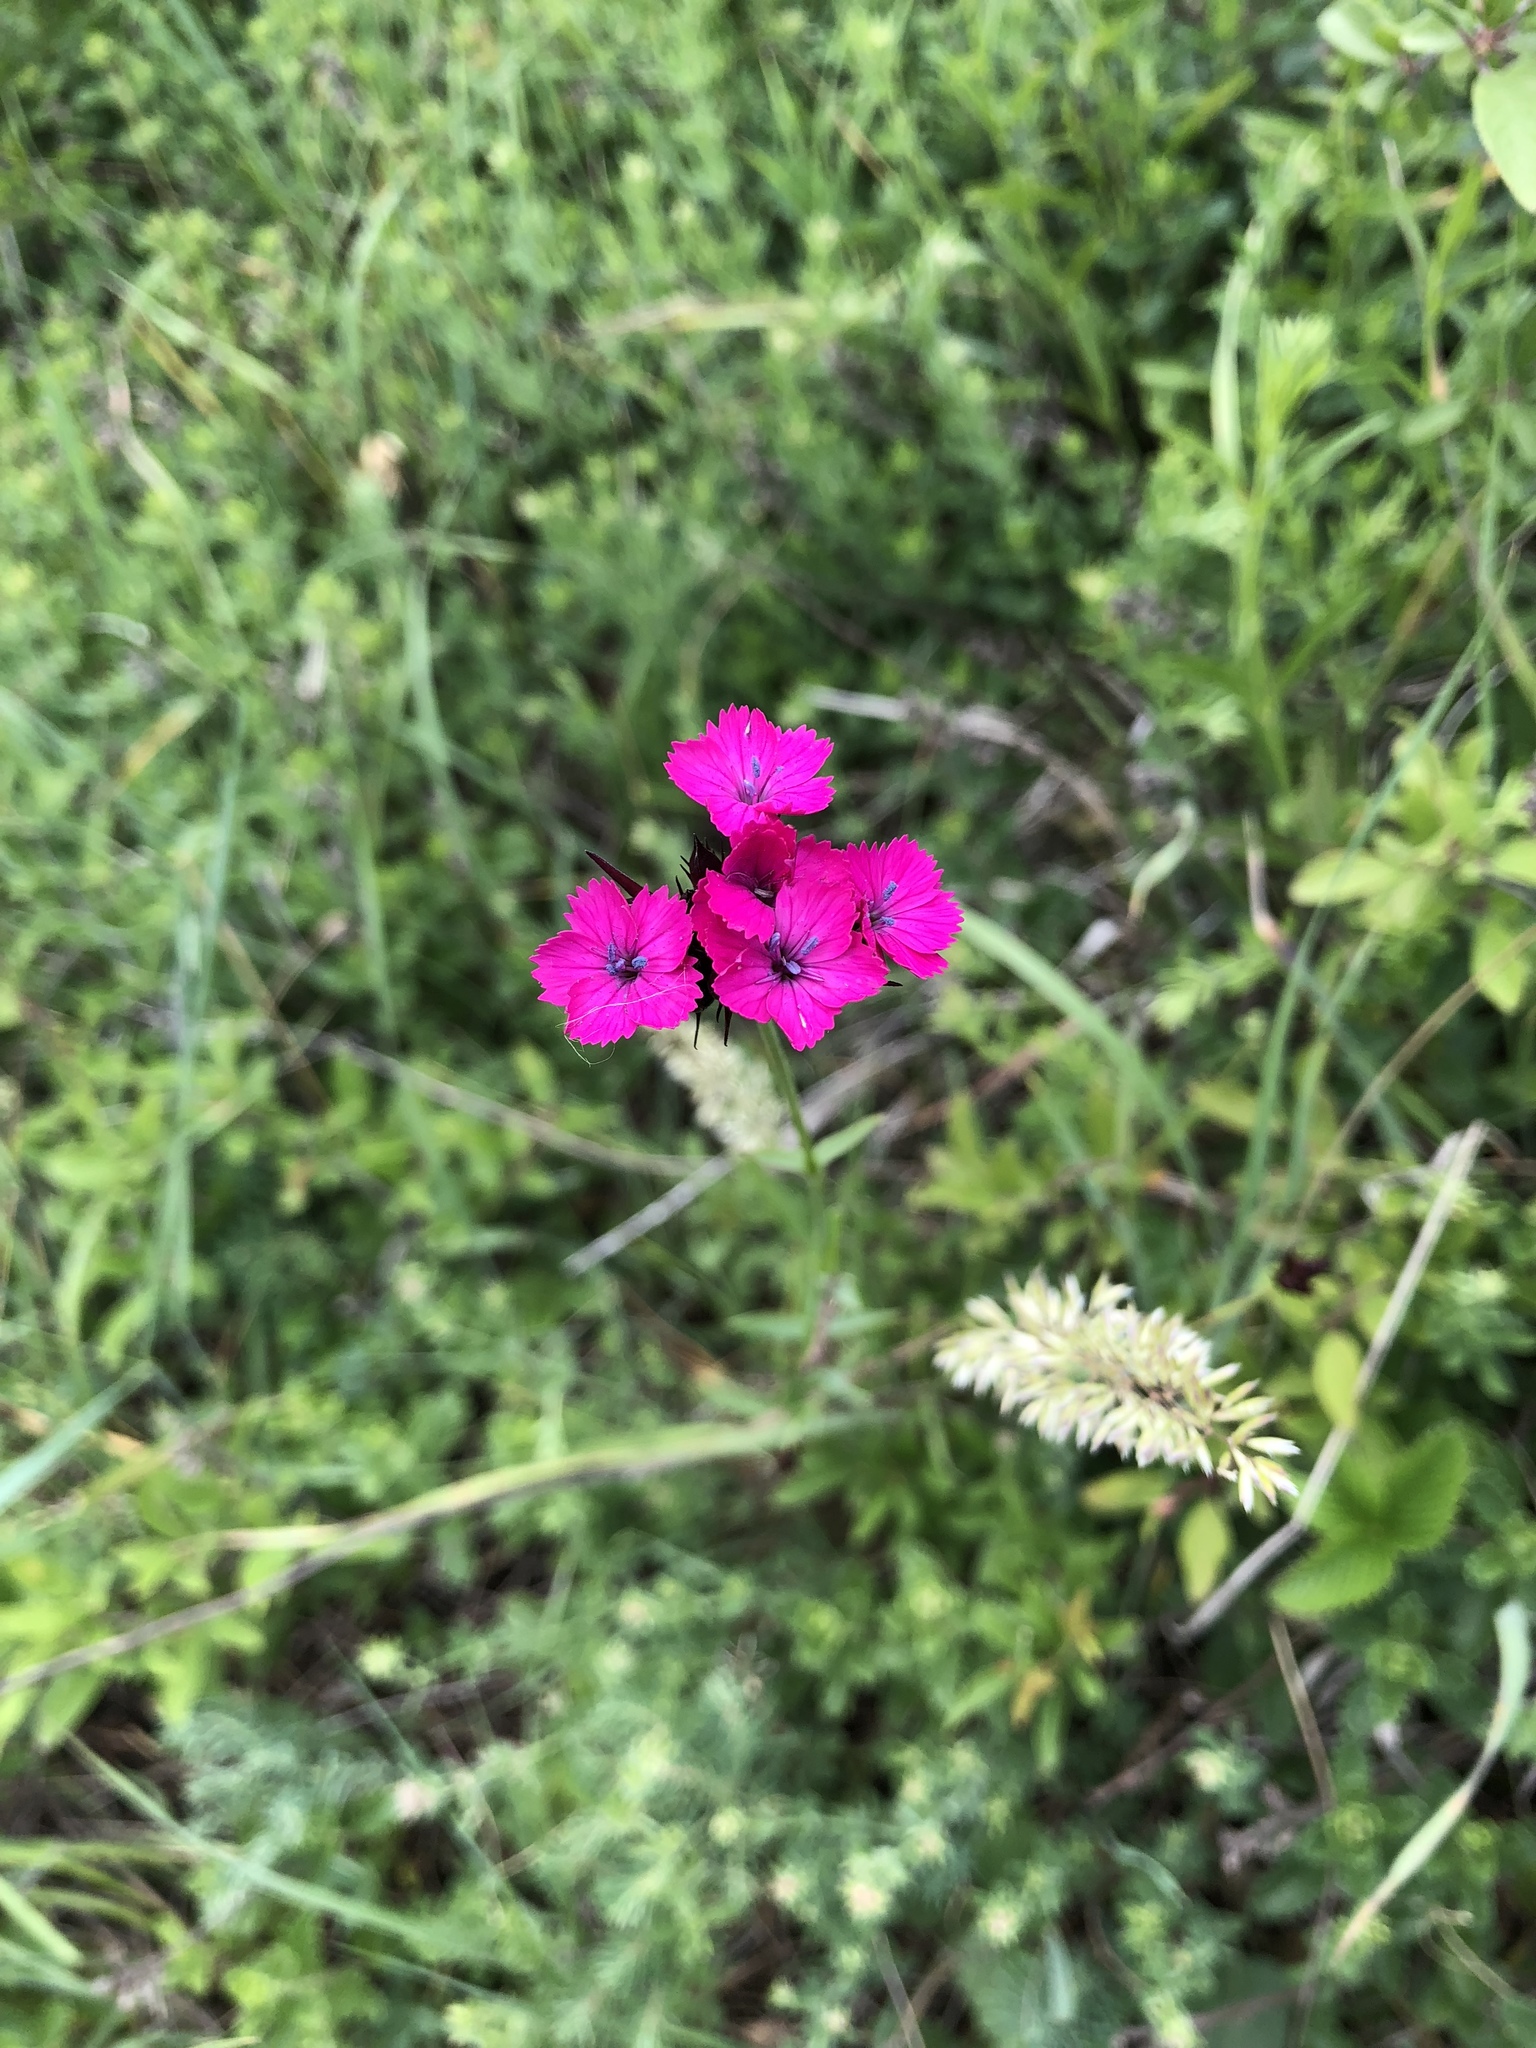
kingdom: Plantae
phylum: Tracheophyta
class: Magnoliopsida
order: Caryophyllales
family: Caryophyllaceae
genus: Dianthus
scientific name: Dianthus carthusianorum
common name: Carthusian pink
